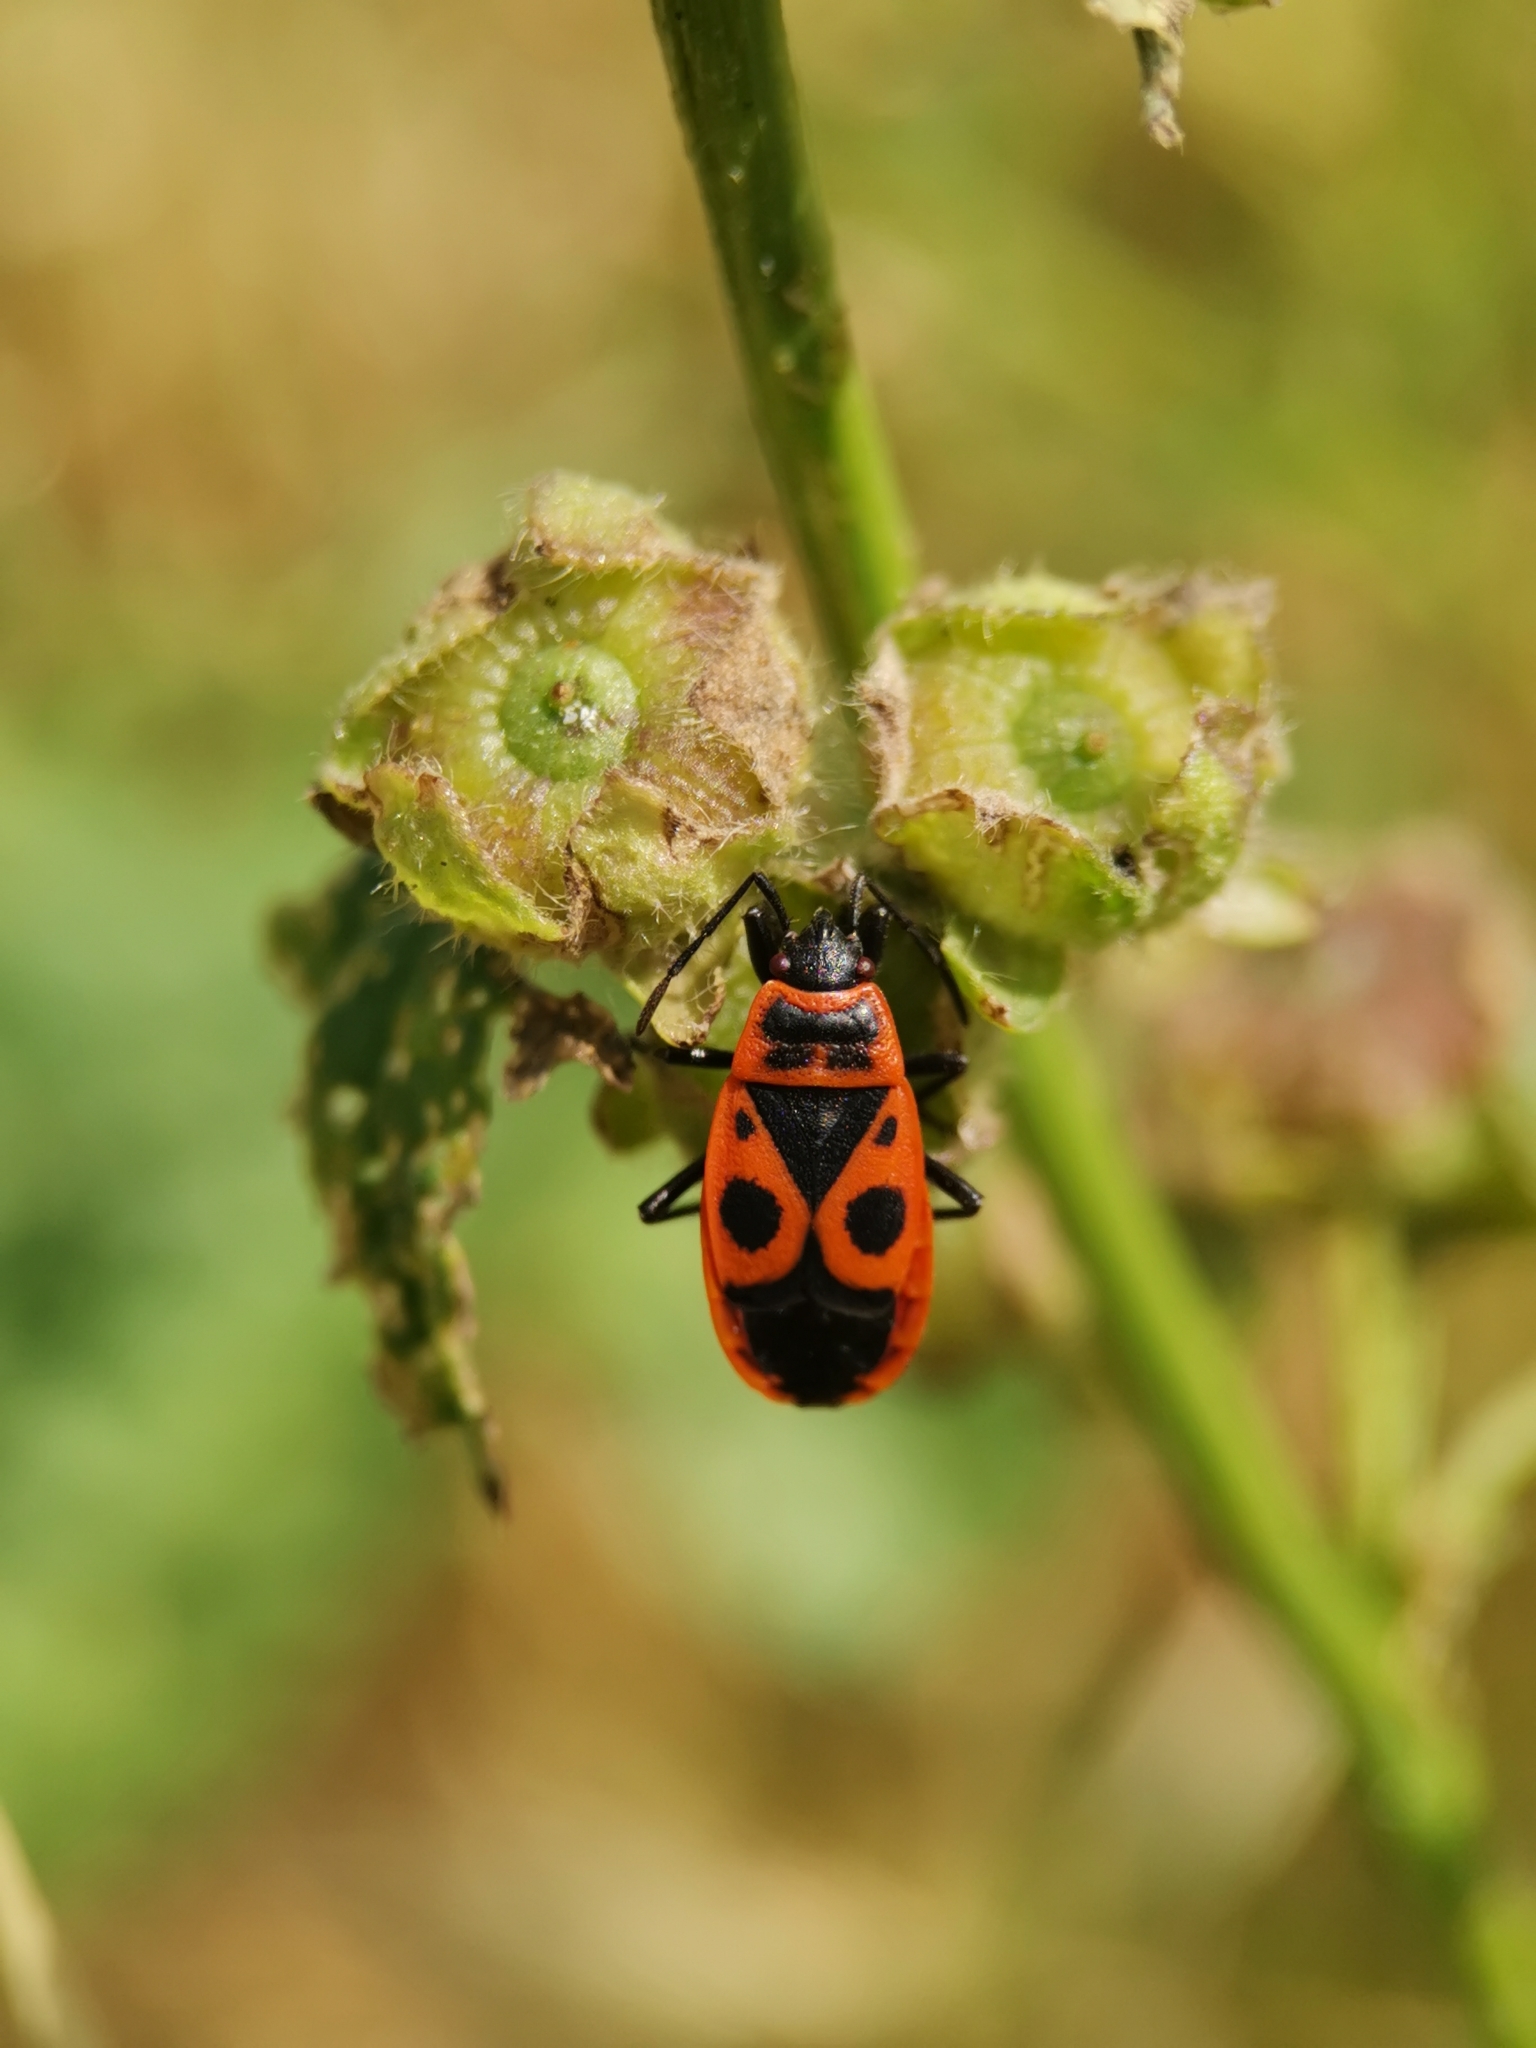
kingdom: Animalia
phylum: Arthropoda
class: Insecta
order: Hemiptera
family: Pyrrhocoridae
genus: Pyrrhocoris
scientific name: Pyrrhocoris apterus
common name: Firebug
